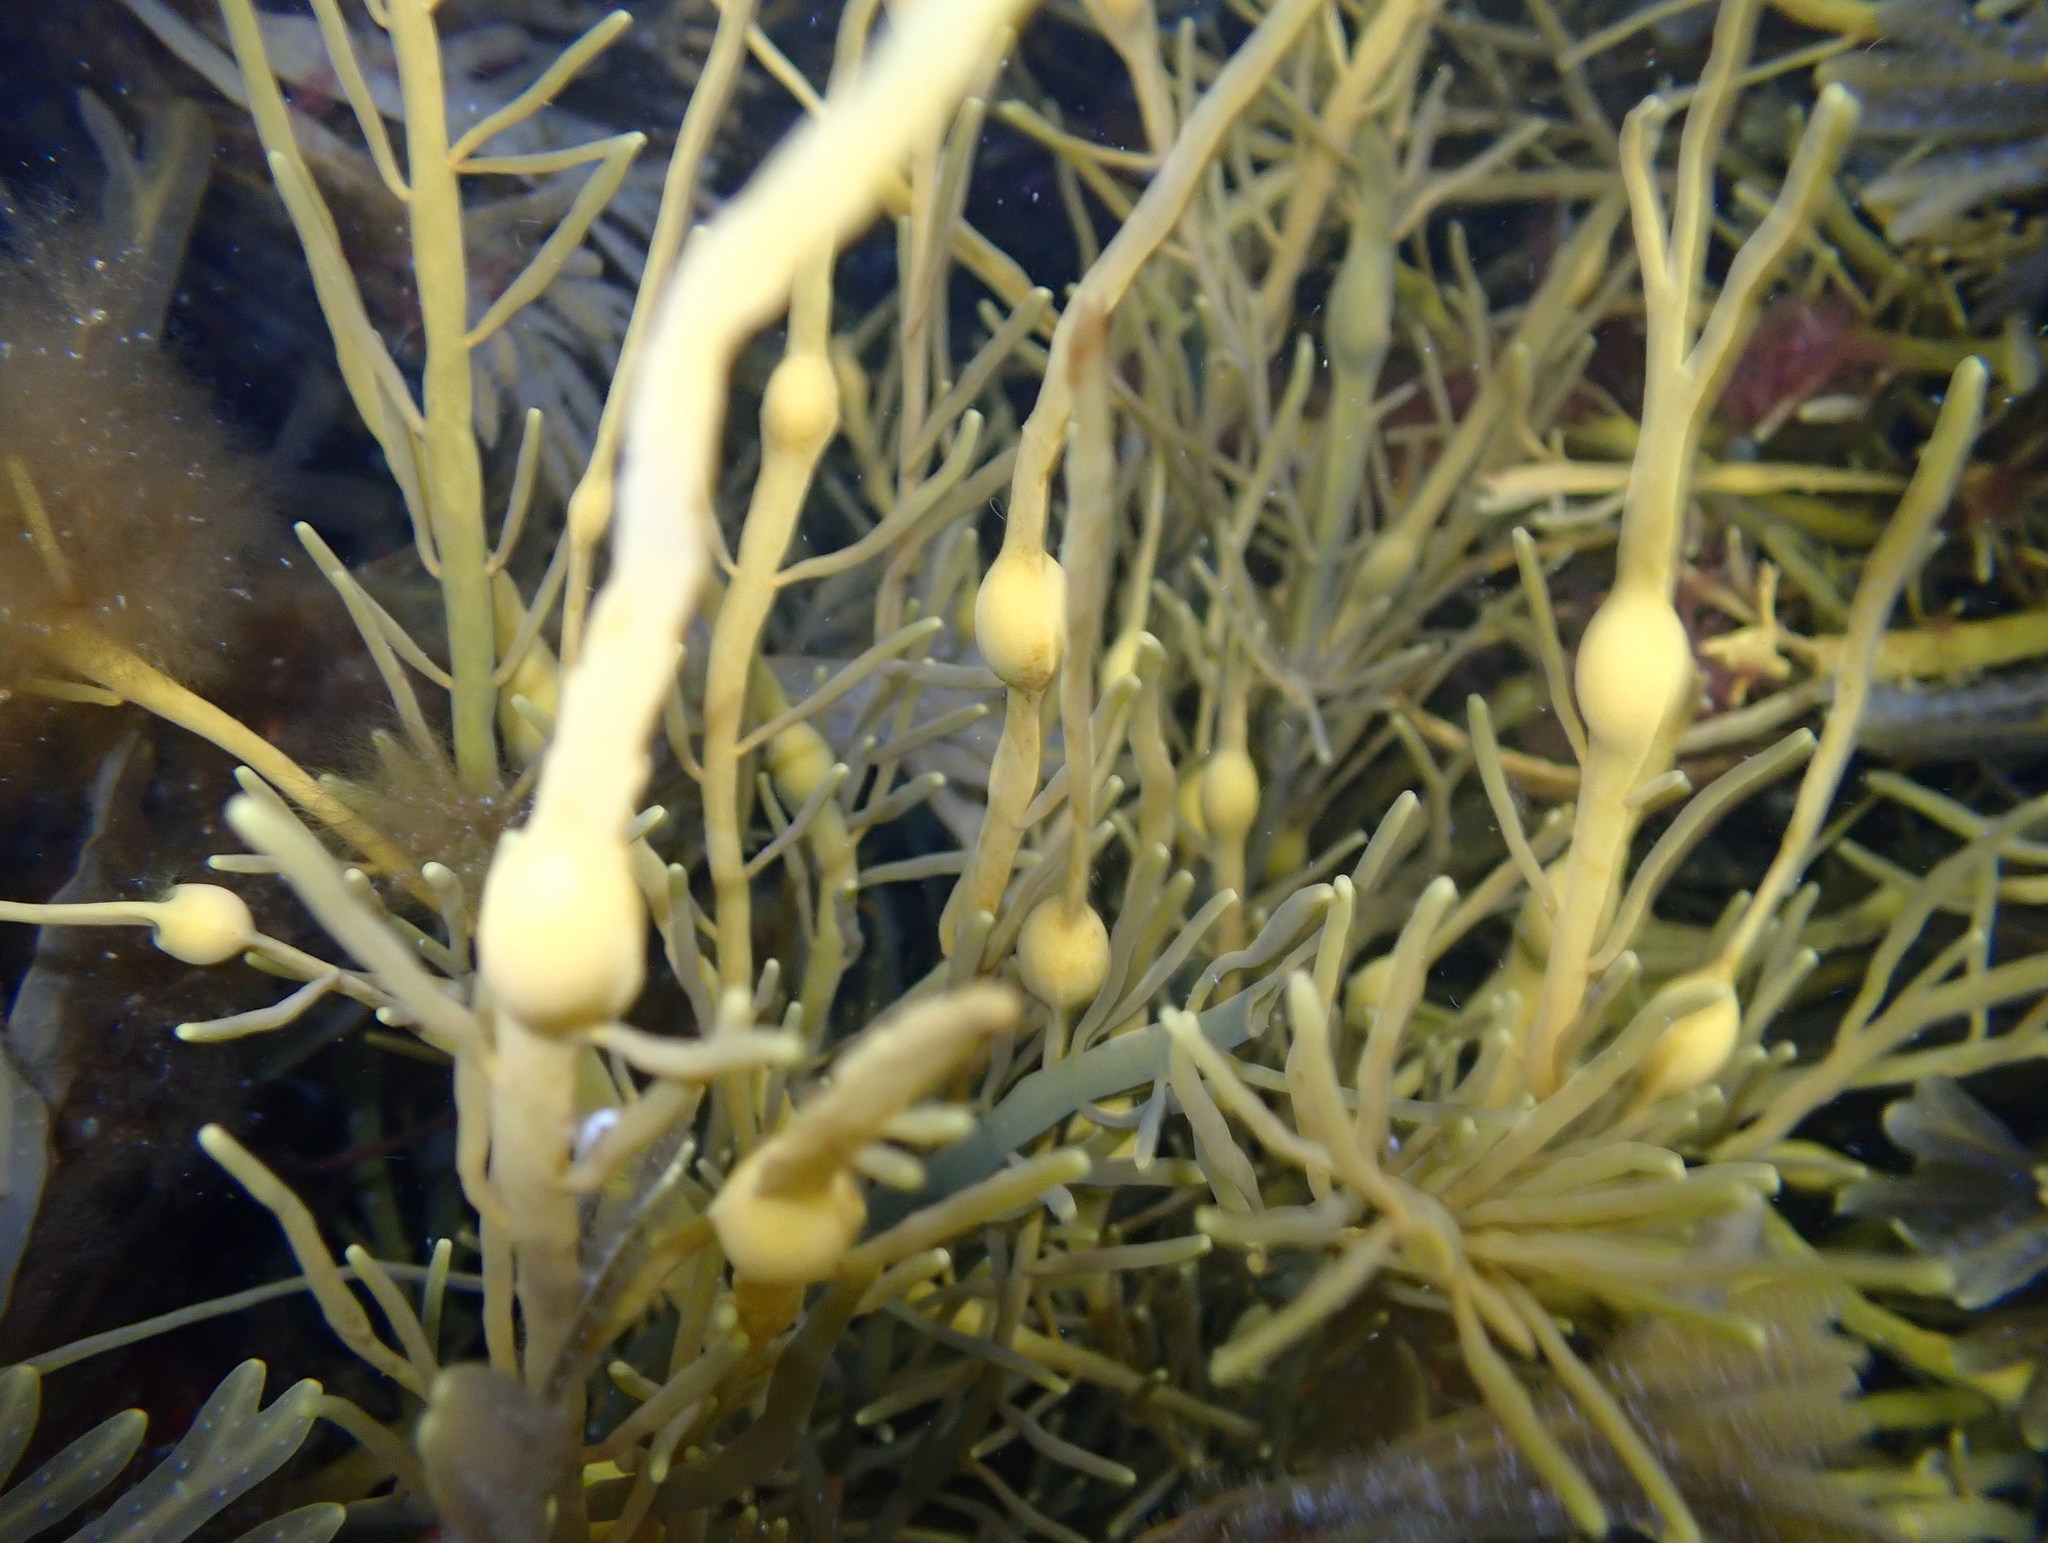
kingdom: Chromista
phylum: Ochrophyta
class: Phaeophyceae
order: Fucales
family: Fucaceae
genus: Ascophyllum
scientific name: Ascophyllum nodosum
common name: Knotted wrack
